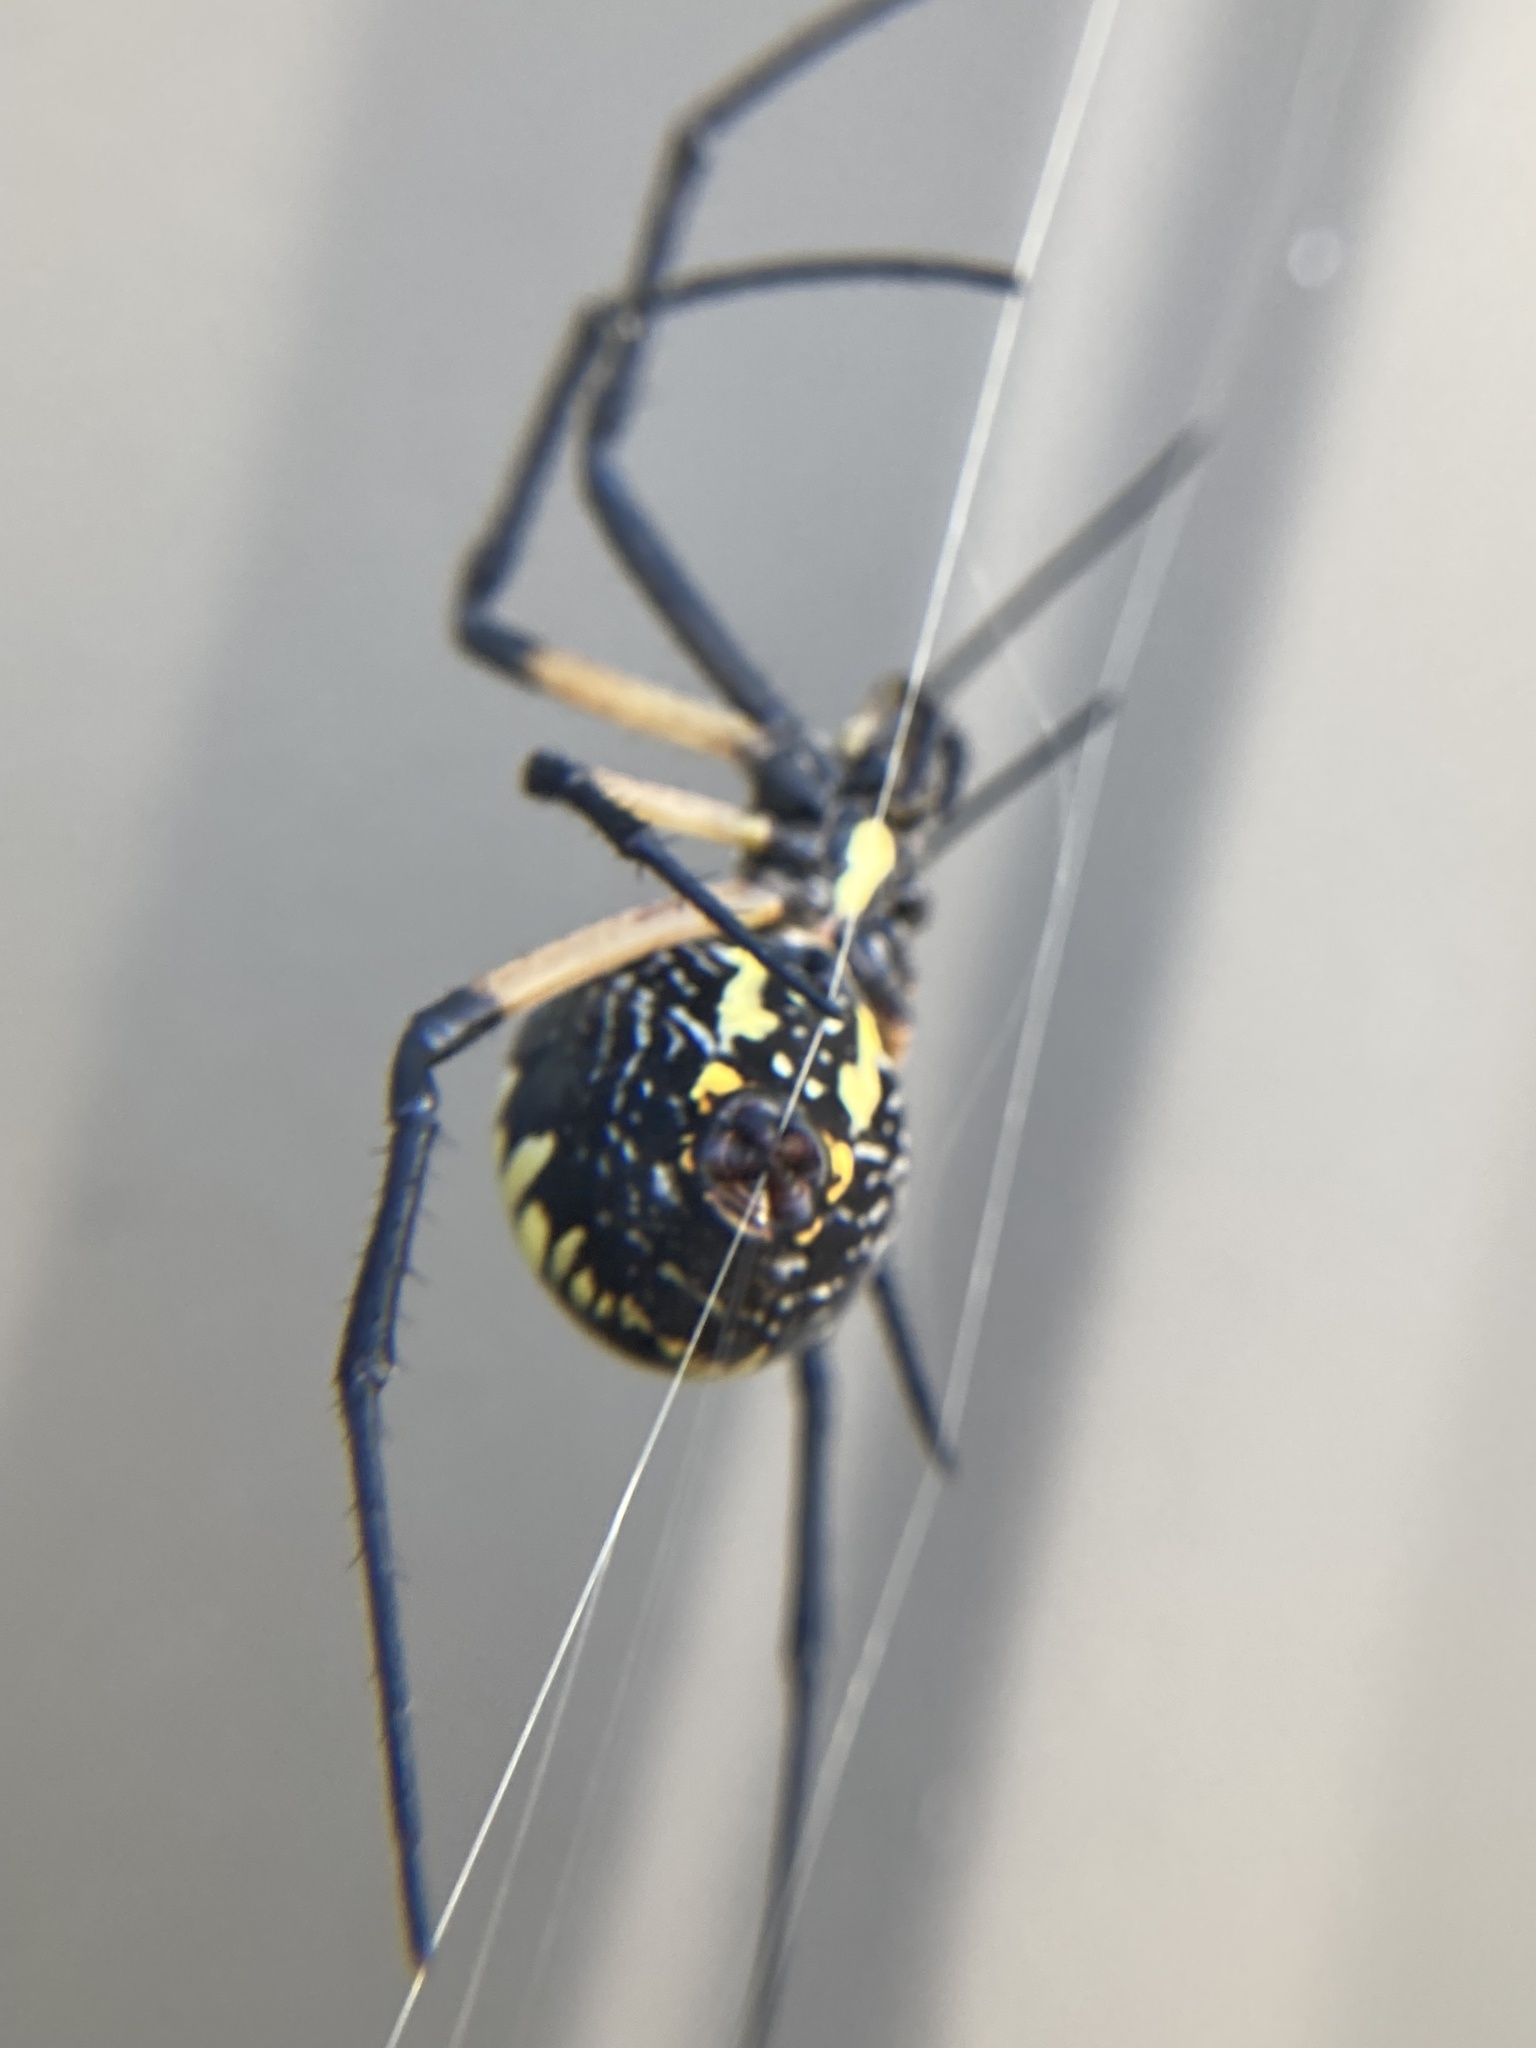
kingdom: Animalia
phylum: Arthropoda
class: Arachnida
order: Araneae
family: Araneidae
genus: Argiope
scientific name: Argiope aurantia
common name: Orb weavers
